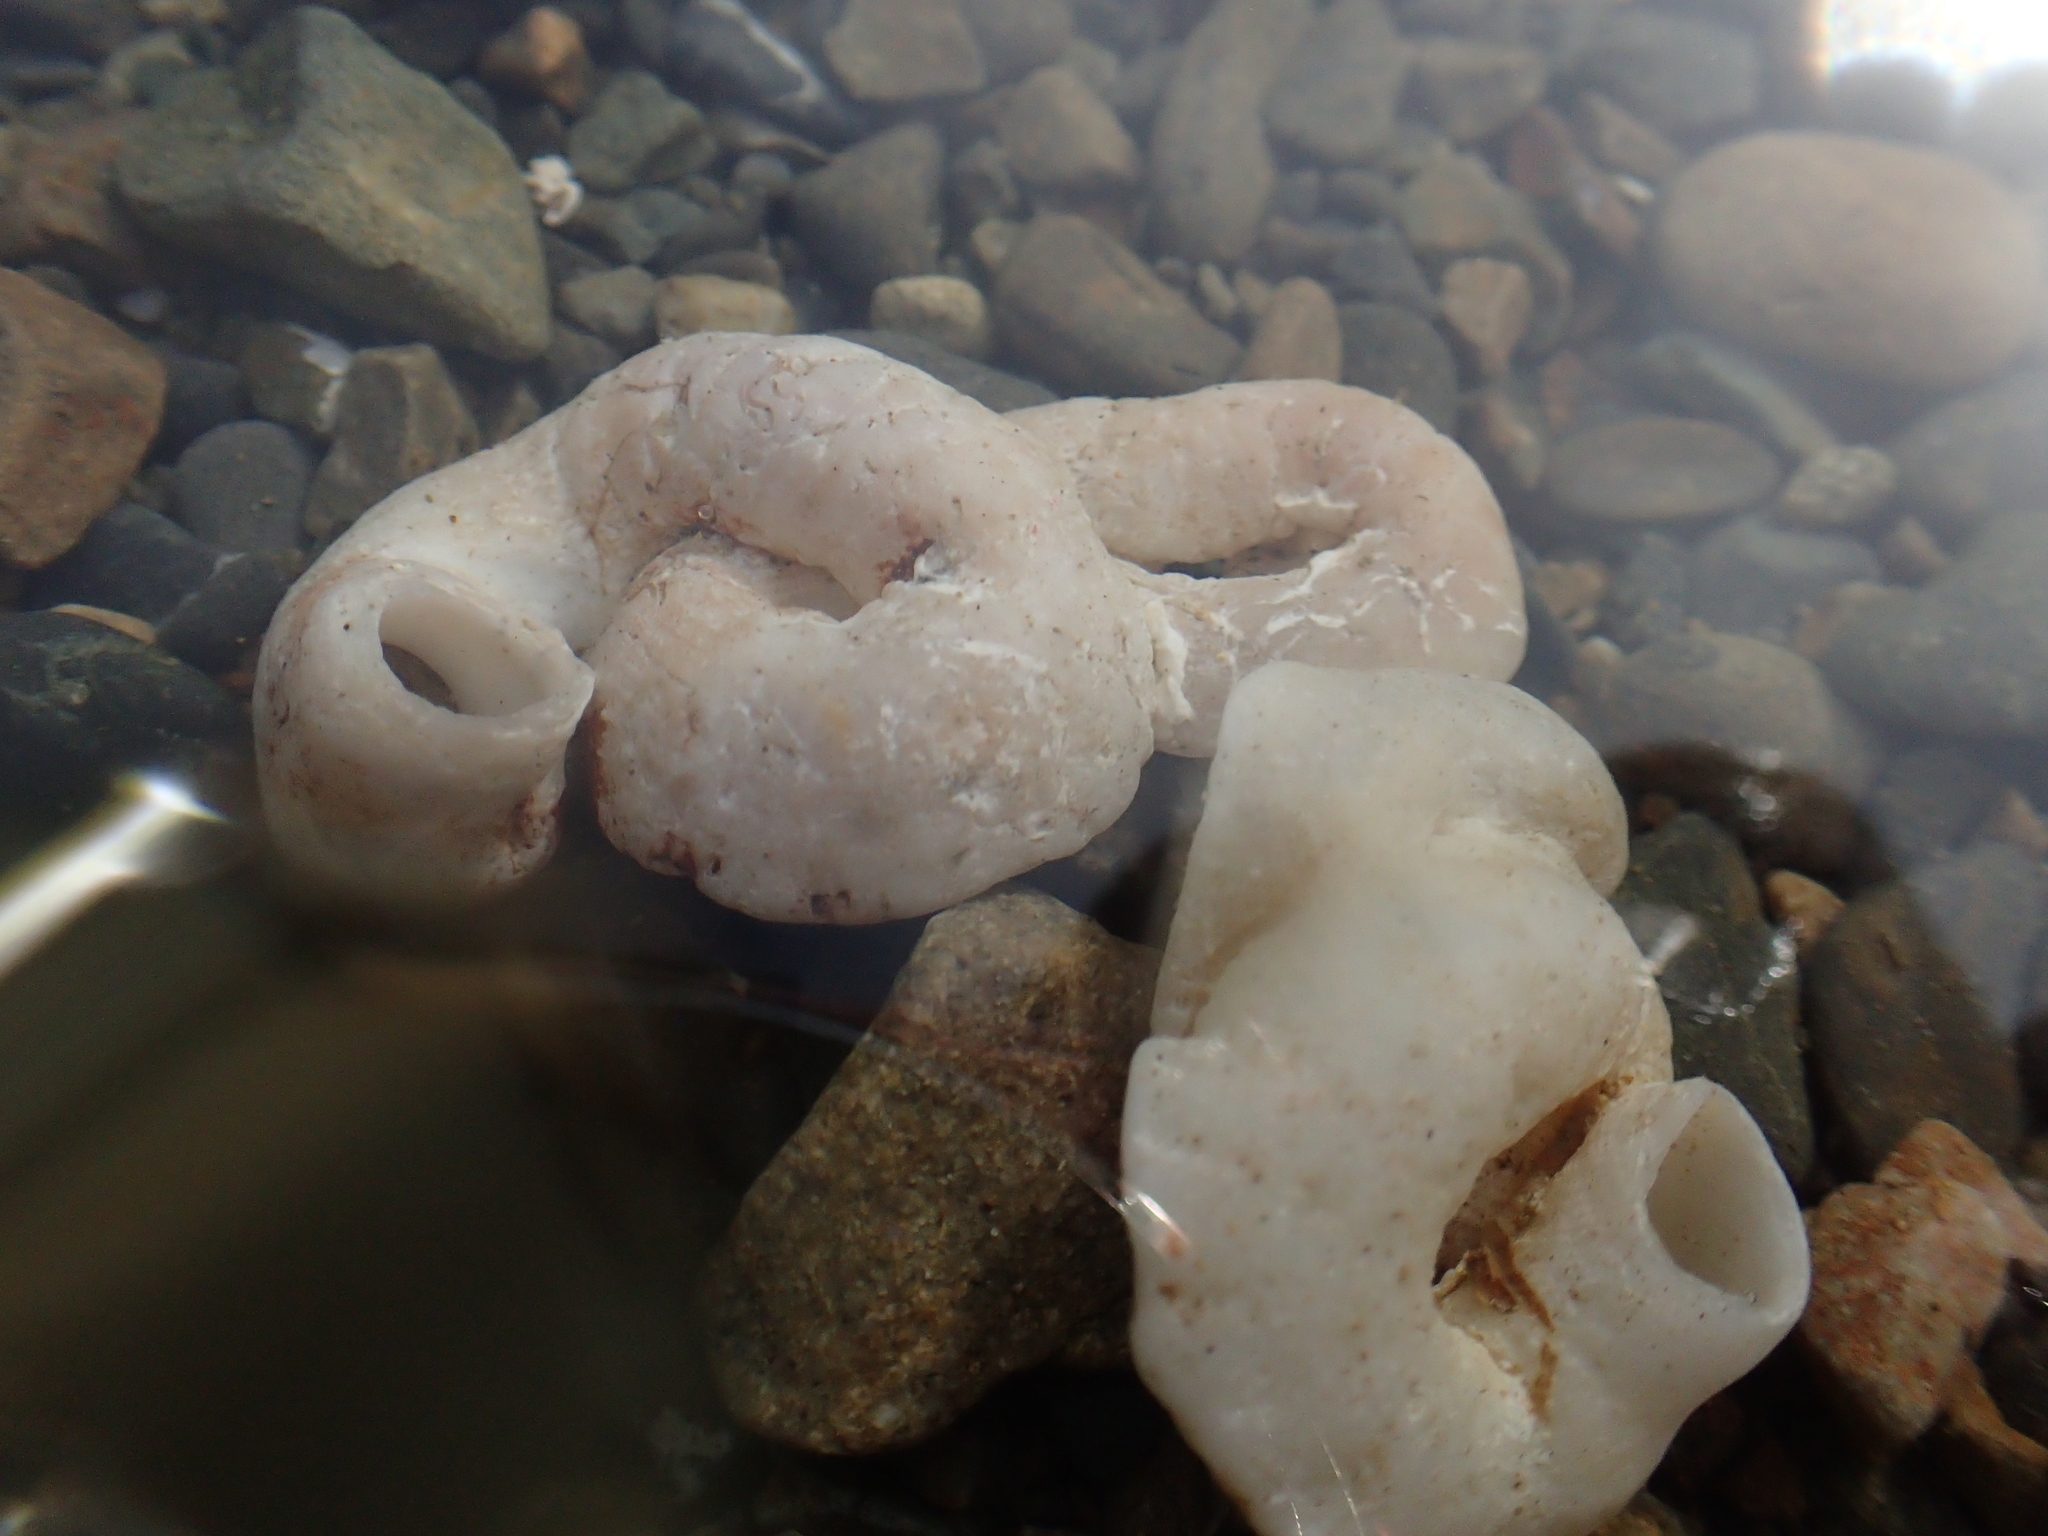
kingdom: Animalia
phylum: Mollusca
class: Gastropoda
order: Littorinimorpha
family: Vermetidae
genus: Thylacodes
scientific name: Thylacodes zelandicus
